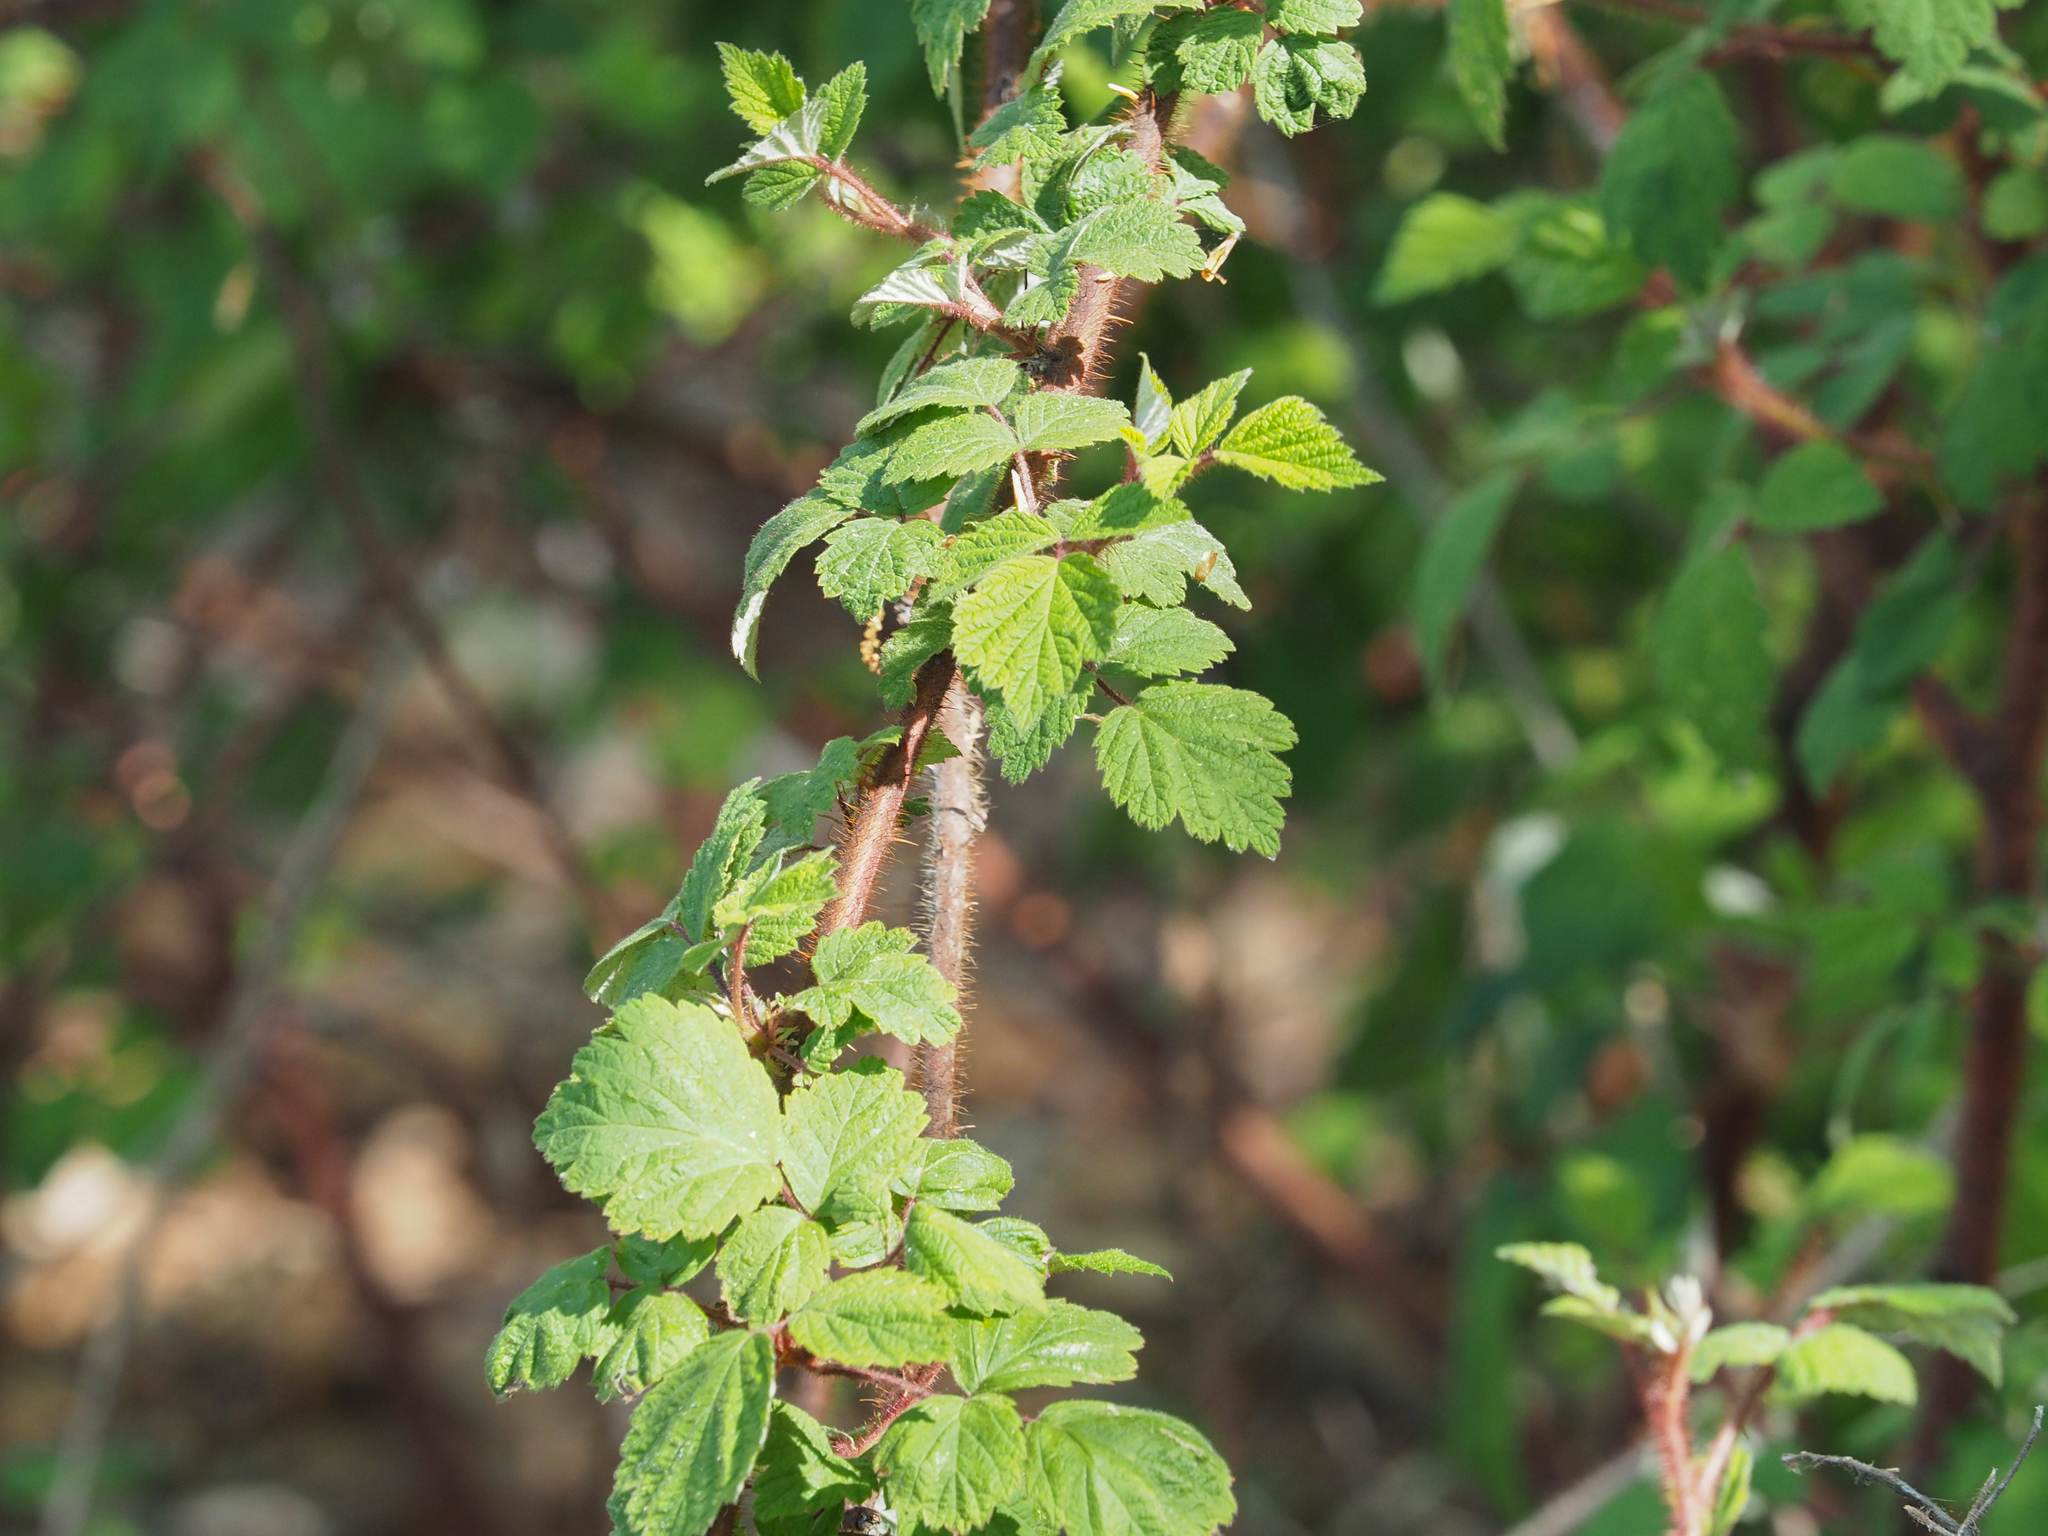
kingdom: Plantae
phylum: Tracheophyta
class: Magnoliopsida
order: Rosales
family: Rosaceae
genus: Rubus
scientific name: Rubus phoenicolasius
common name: Japanese wineberry
